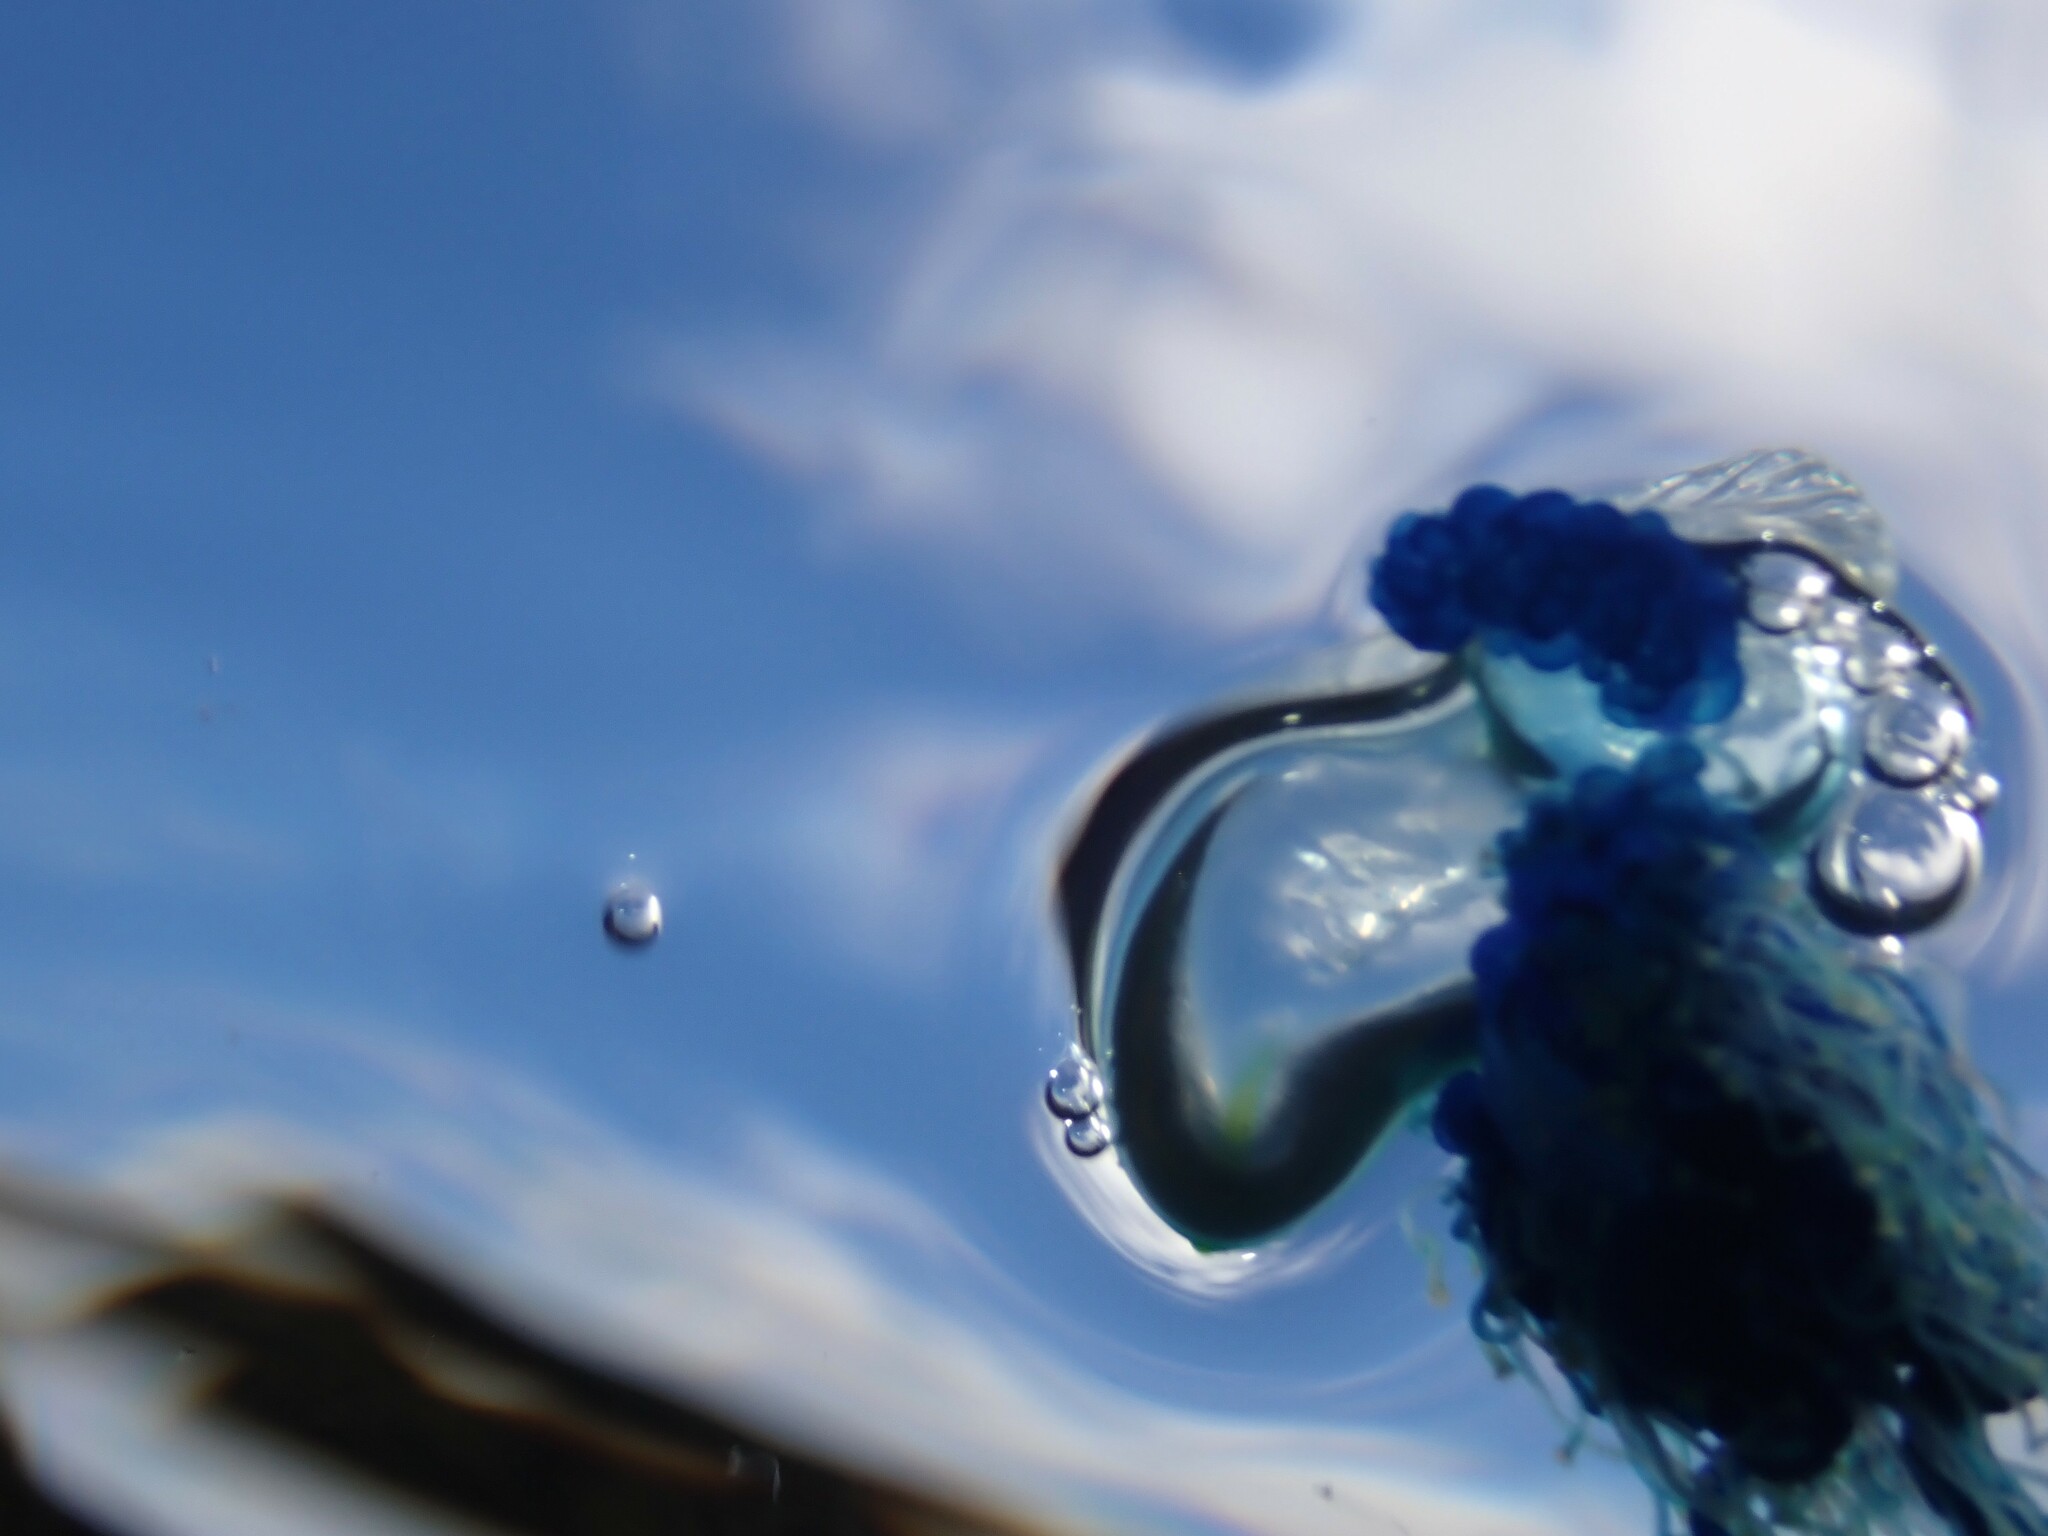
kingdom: Animalia
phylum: Cnidaria
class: Hydrozoa
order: Siphonophorae
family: Physaliidae
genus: Physalia
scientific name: Physalia physalis
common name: Portuguese man-of-war
